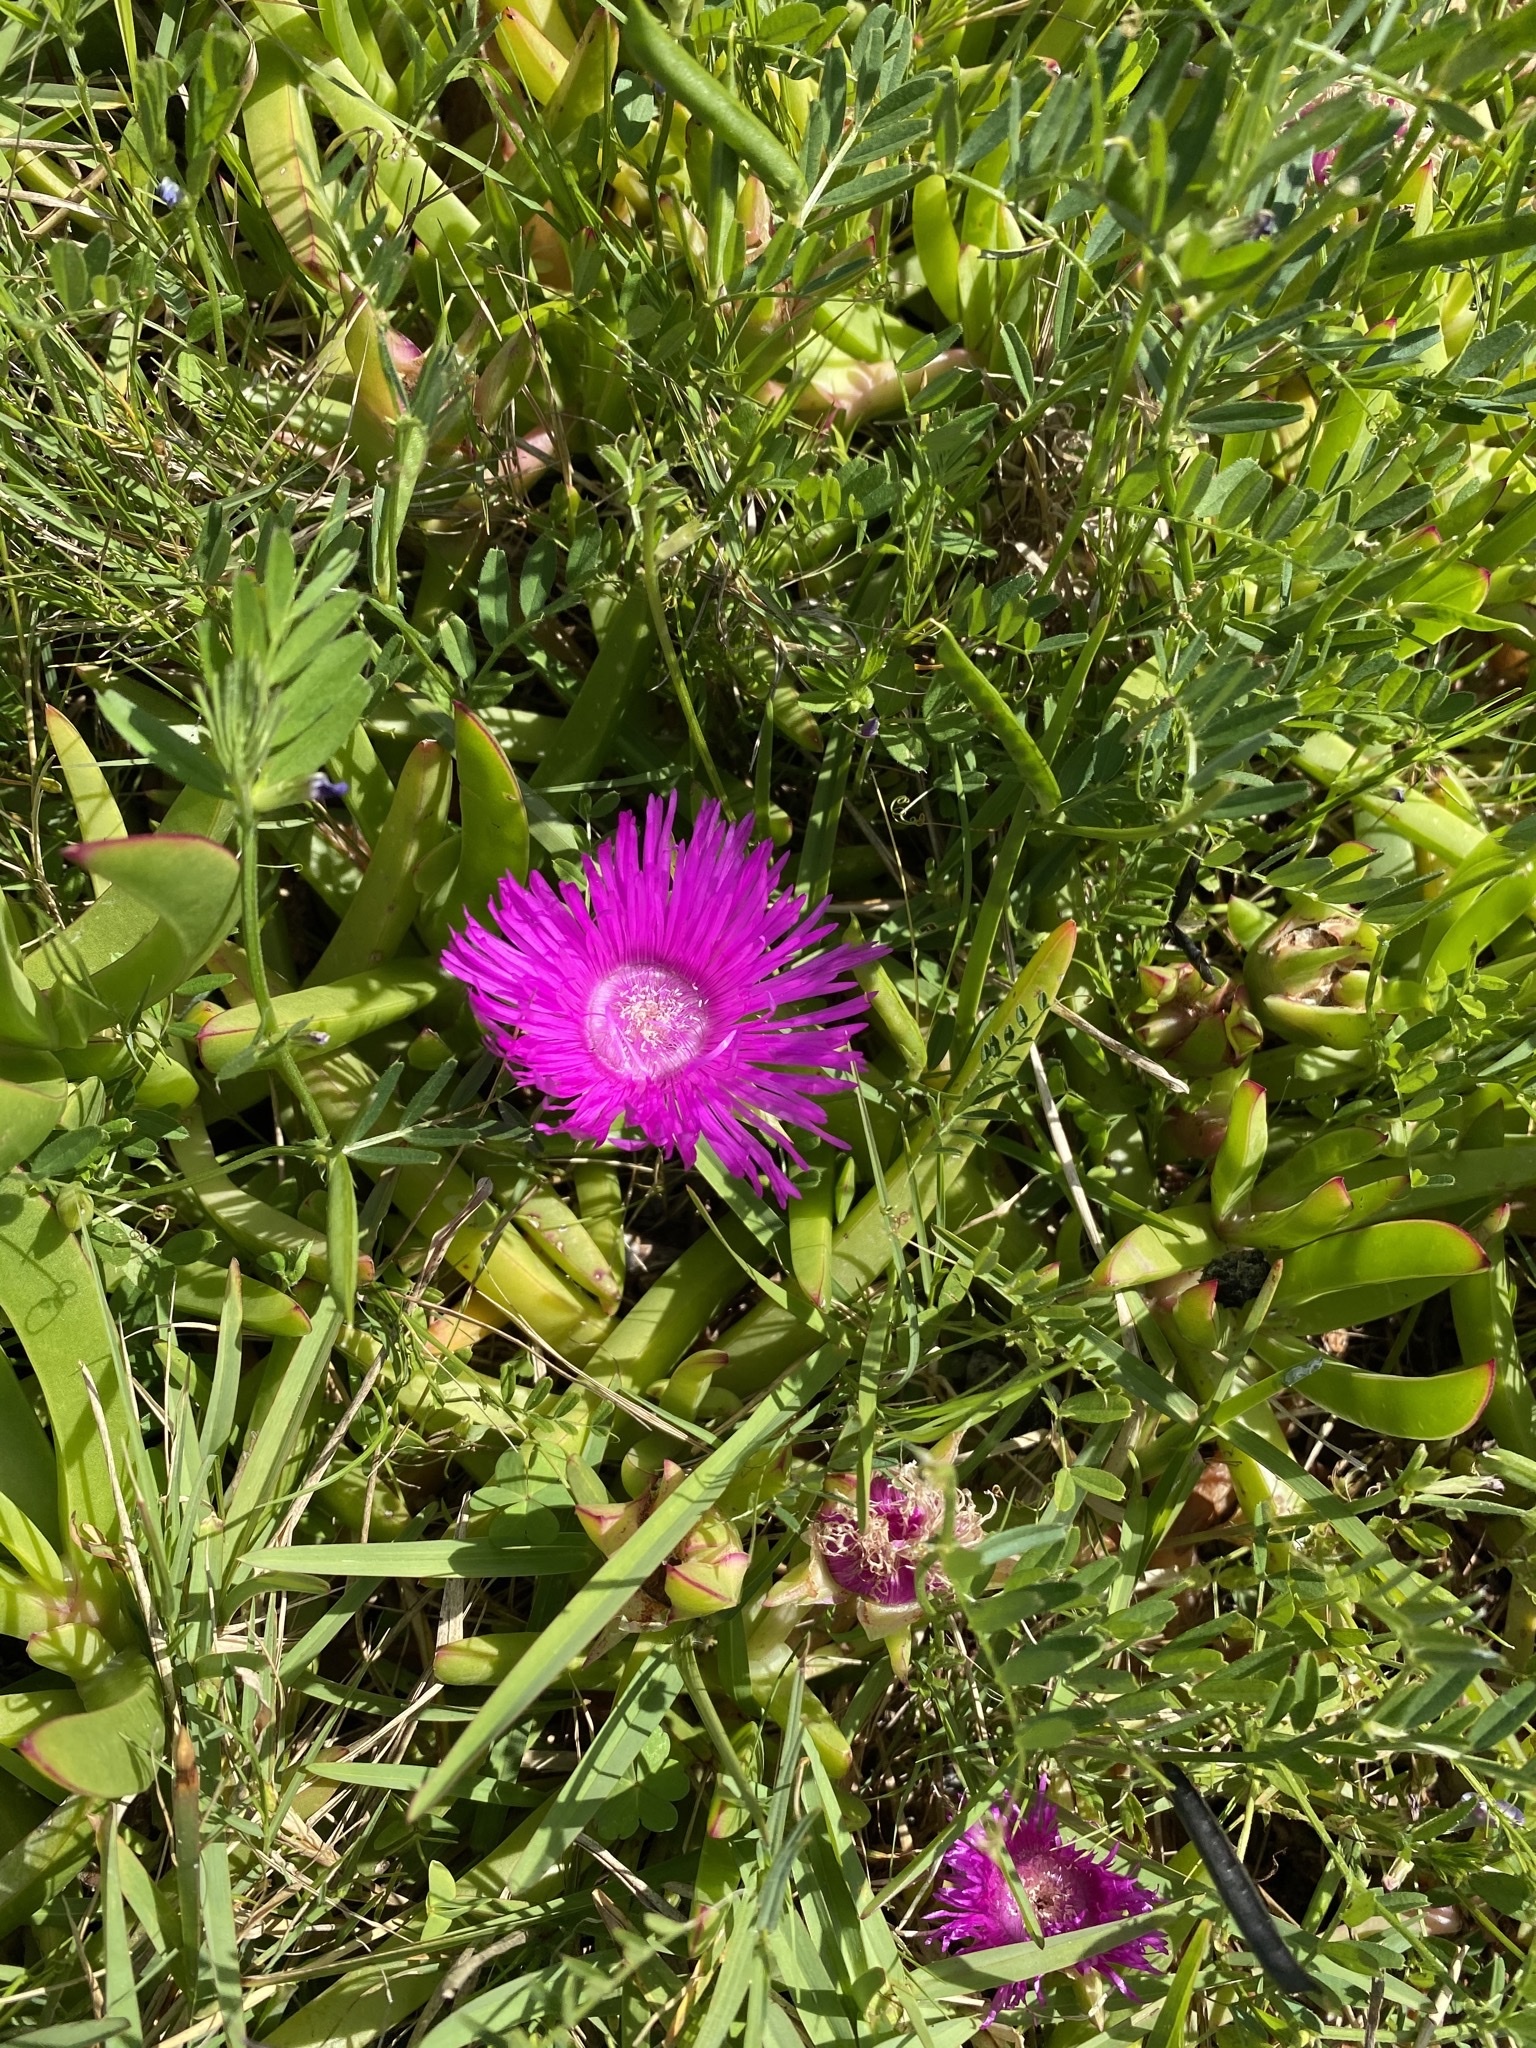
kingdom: Plantae
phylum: Tracheophyta
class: Magnoliopsida
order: Caryophyllales
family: Aizoaceae
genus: Carpobrotus
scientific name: Carpobrotus deliciosus
